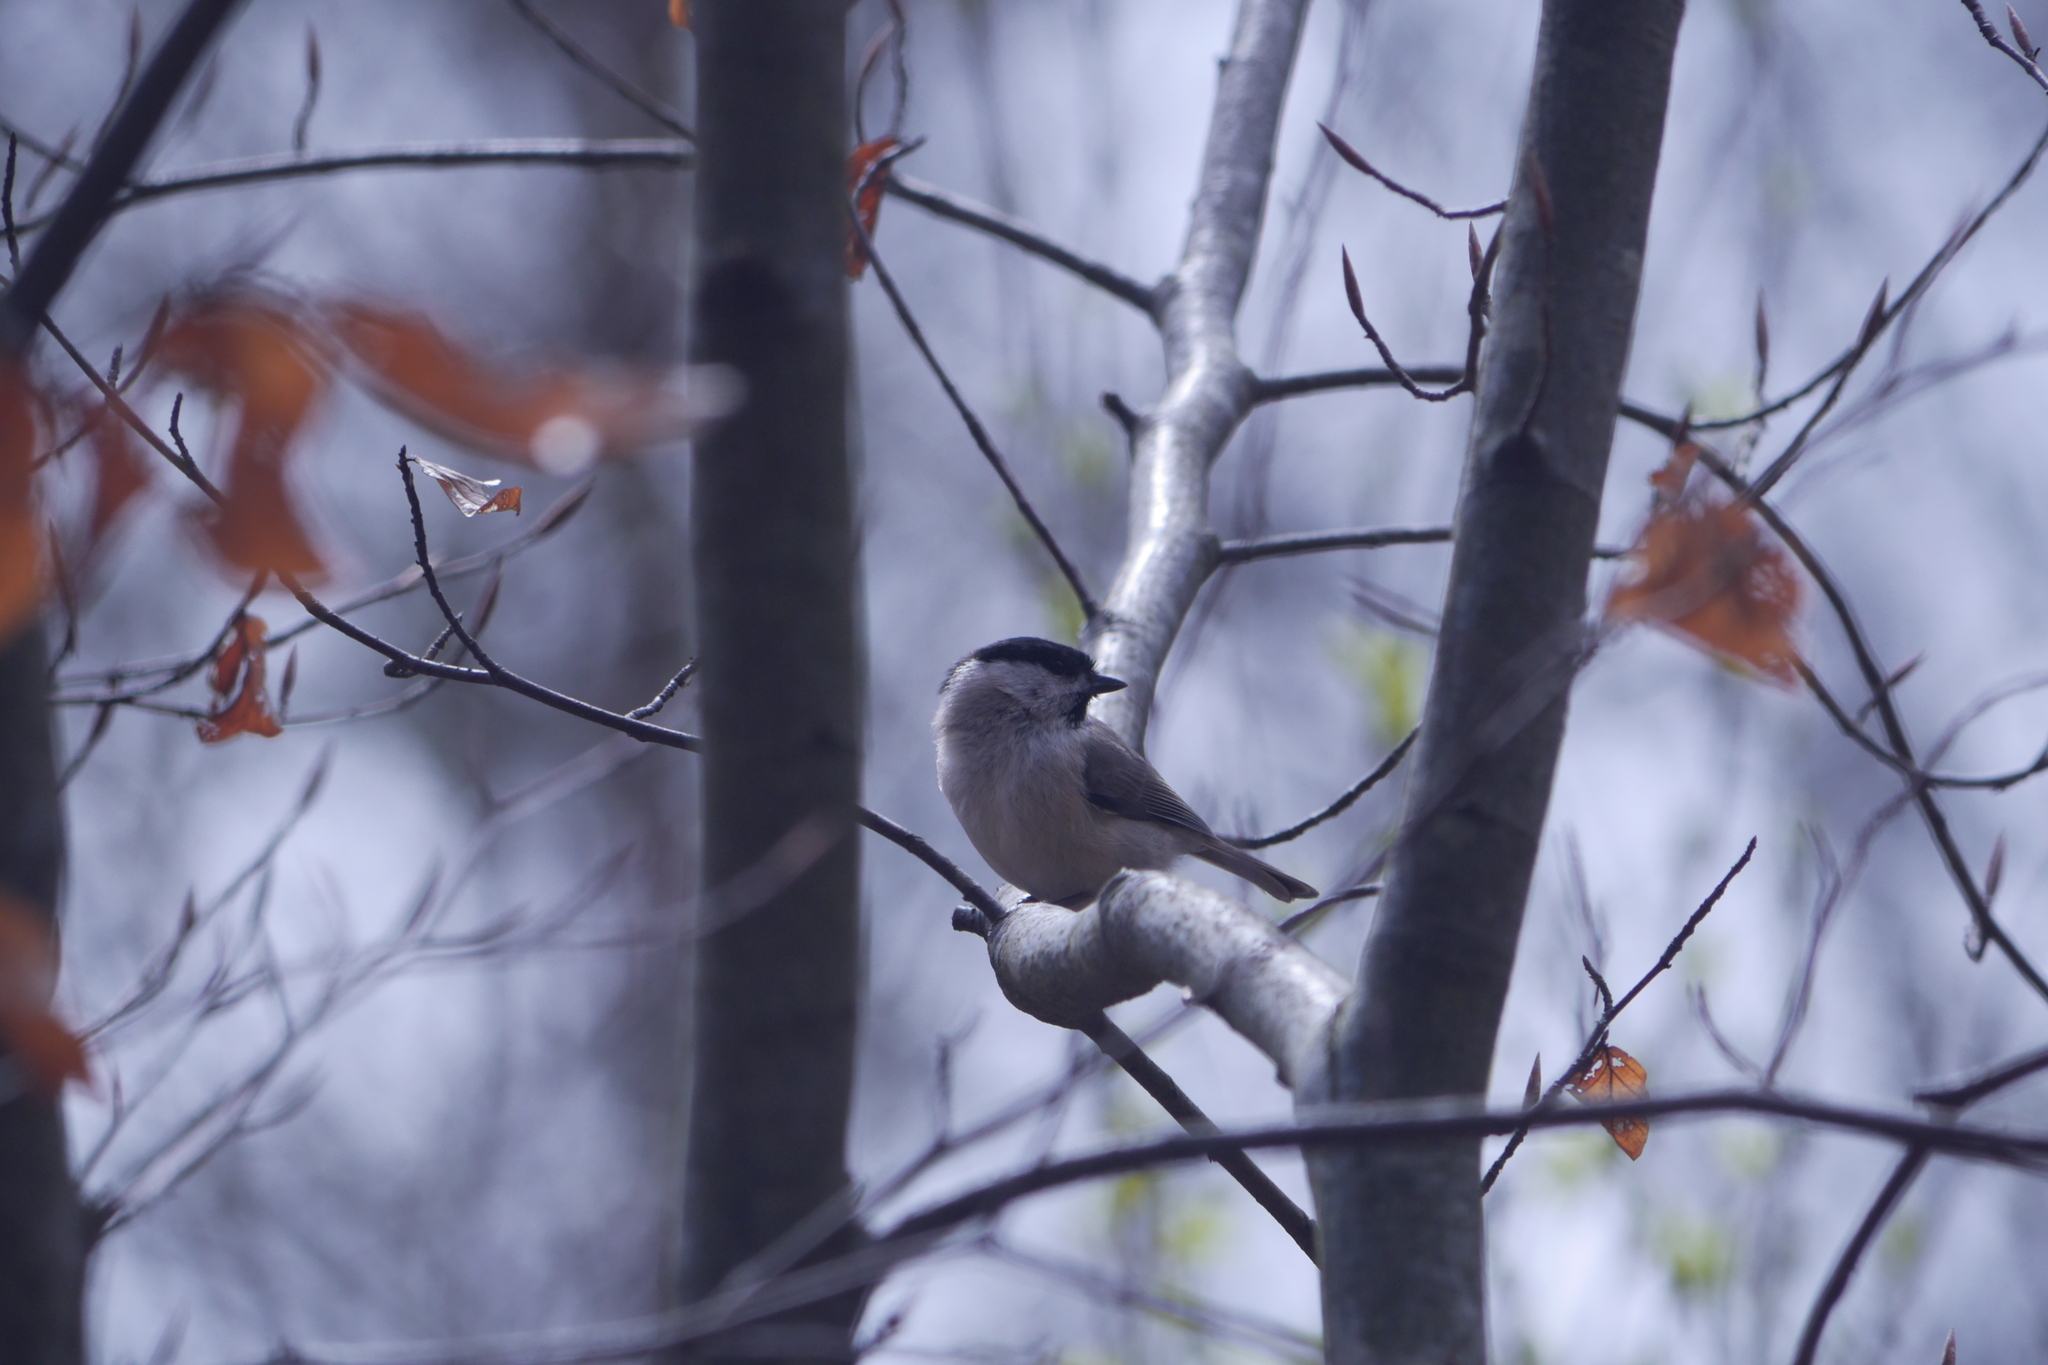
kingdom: Animalia
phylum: Chordata
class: Aves
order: Passeriformes
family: Paridae
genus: Poecile
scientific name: Poecile palustris
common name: Marsh tit
